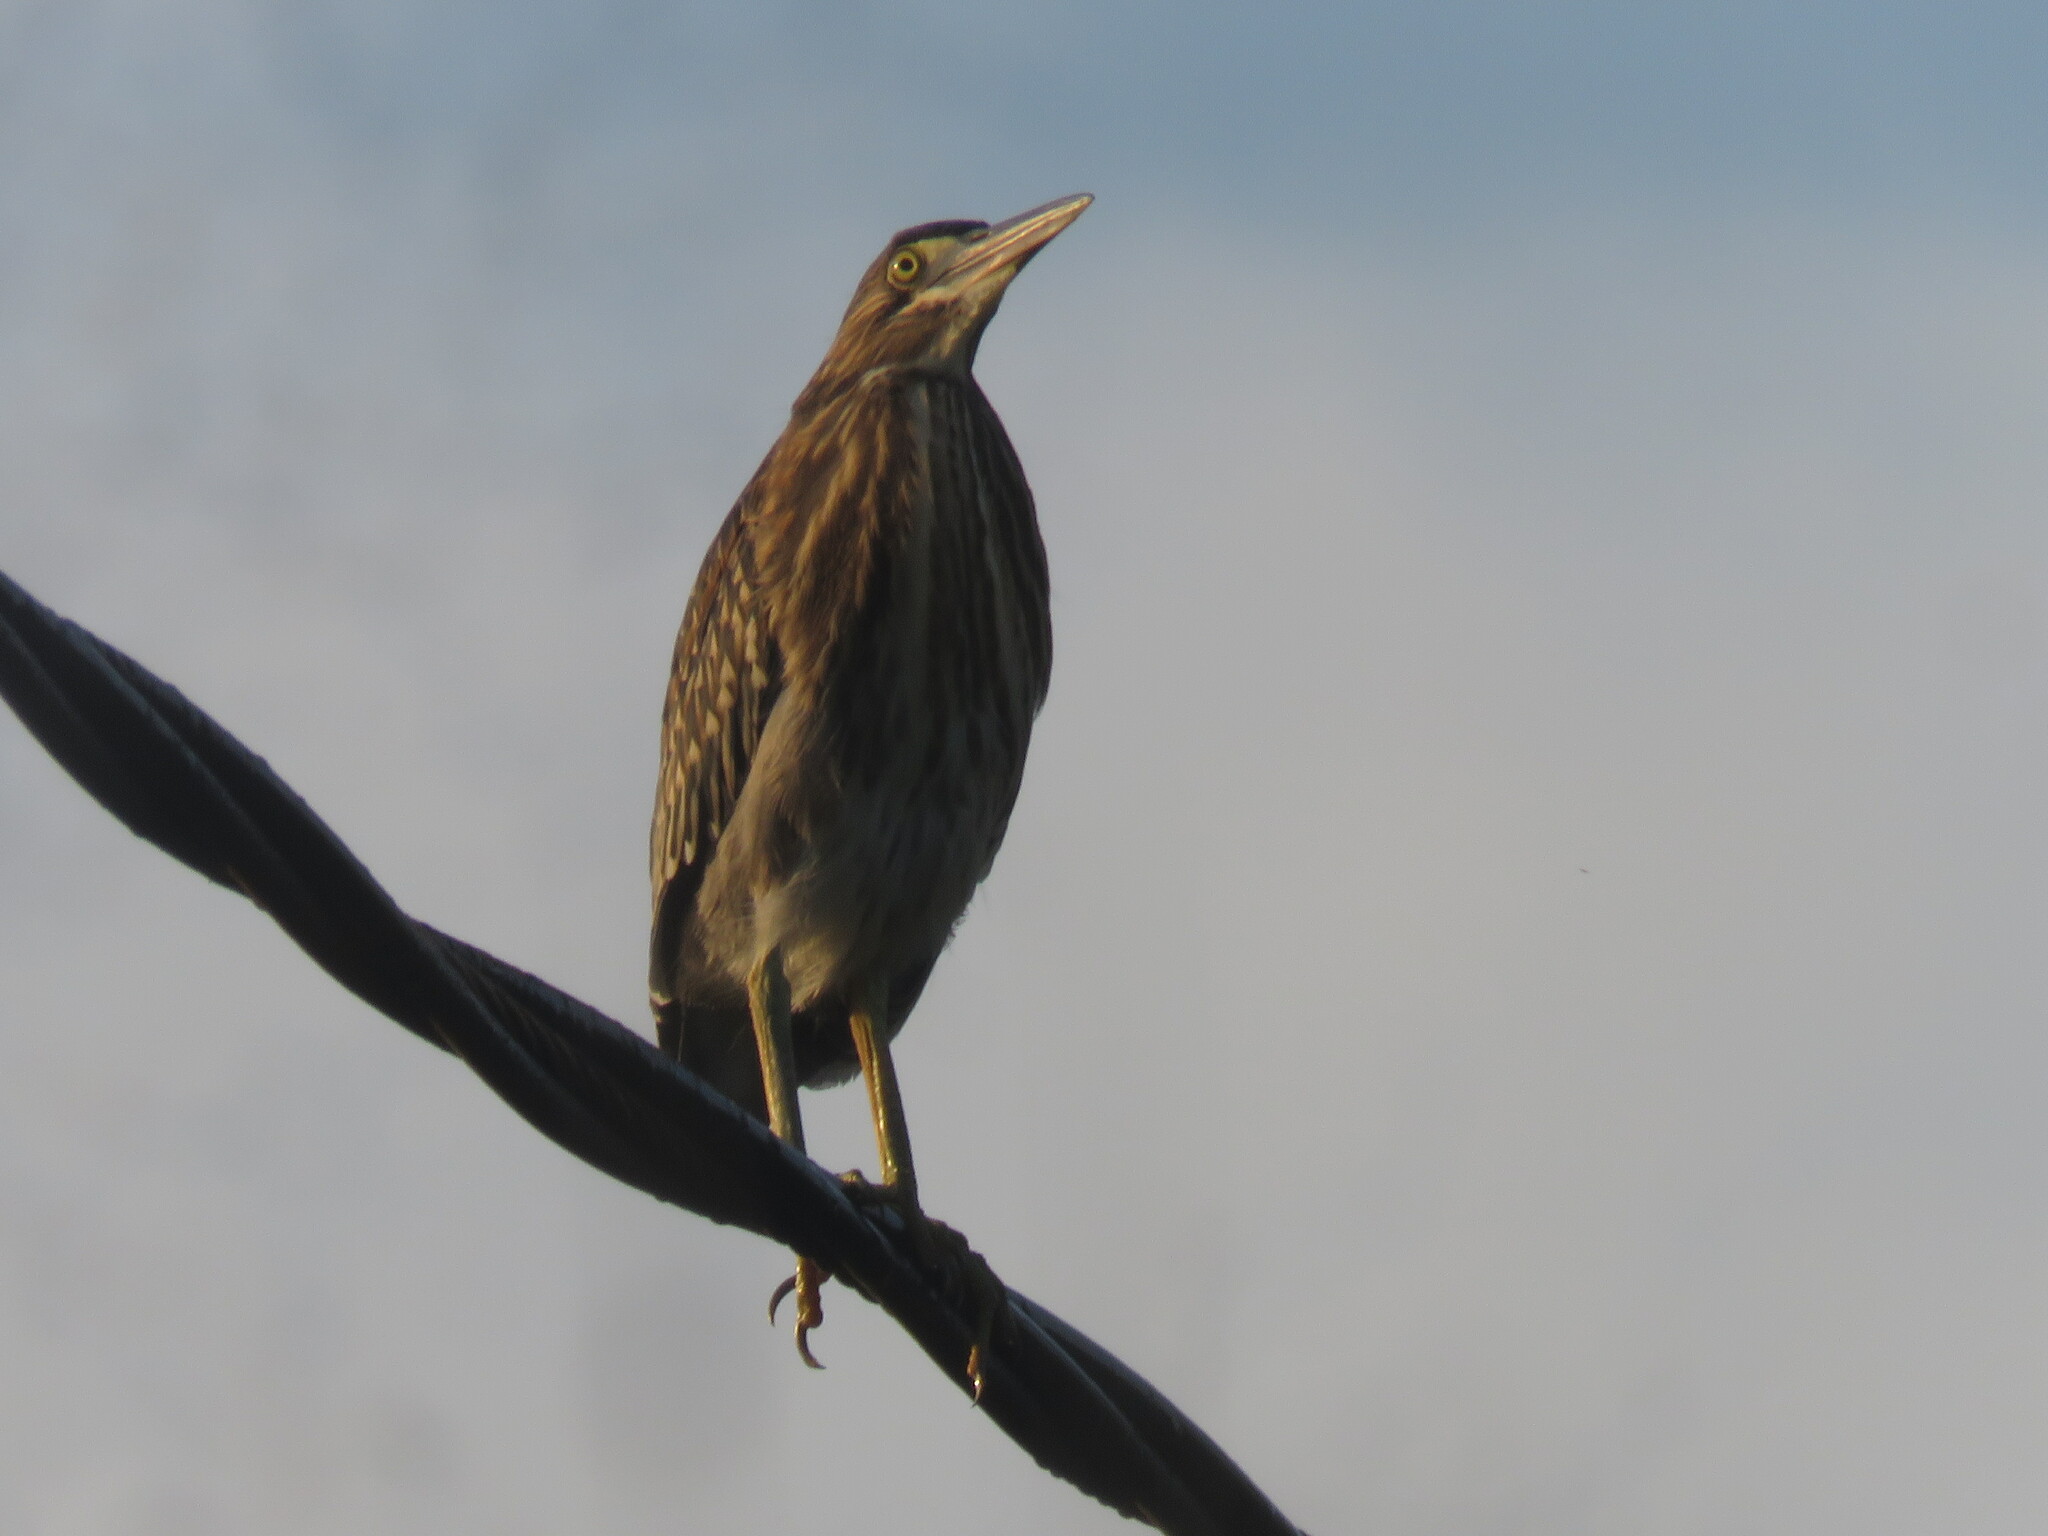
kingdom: Animalia
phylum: Chordata
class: Aves
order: Pelecaniformes
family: Ardeidae
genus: Butorides
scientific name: Butorides striata
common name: Striated heron
